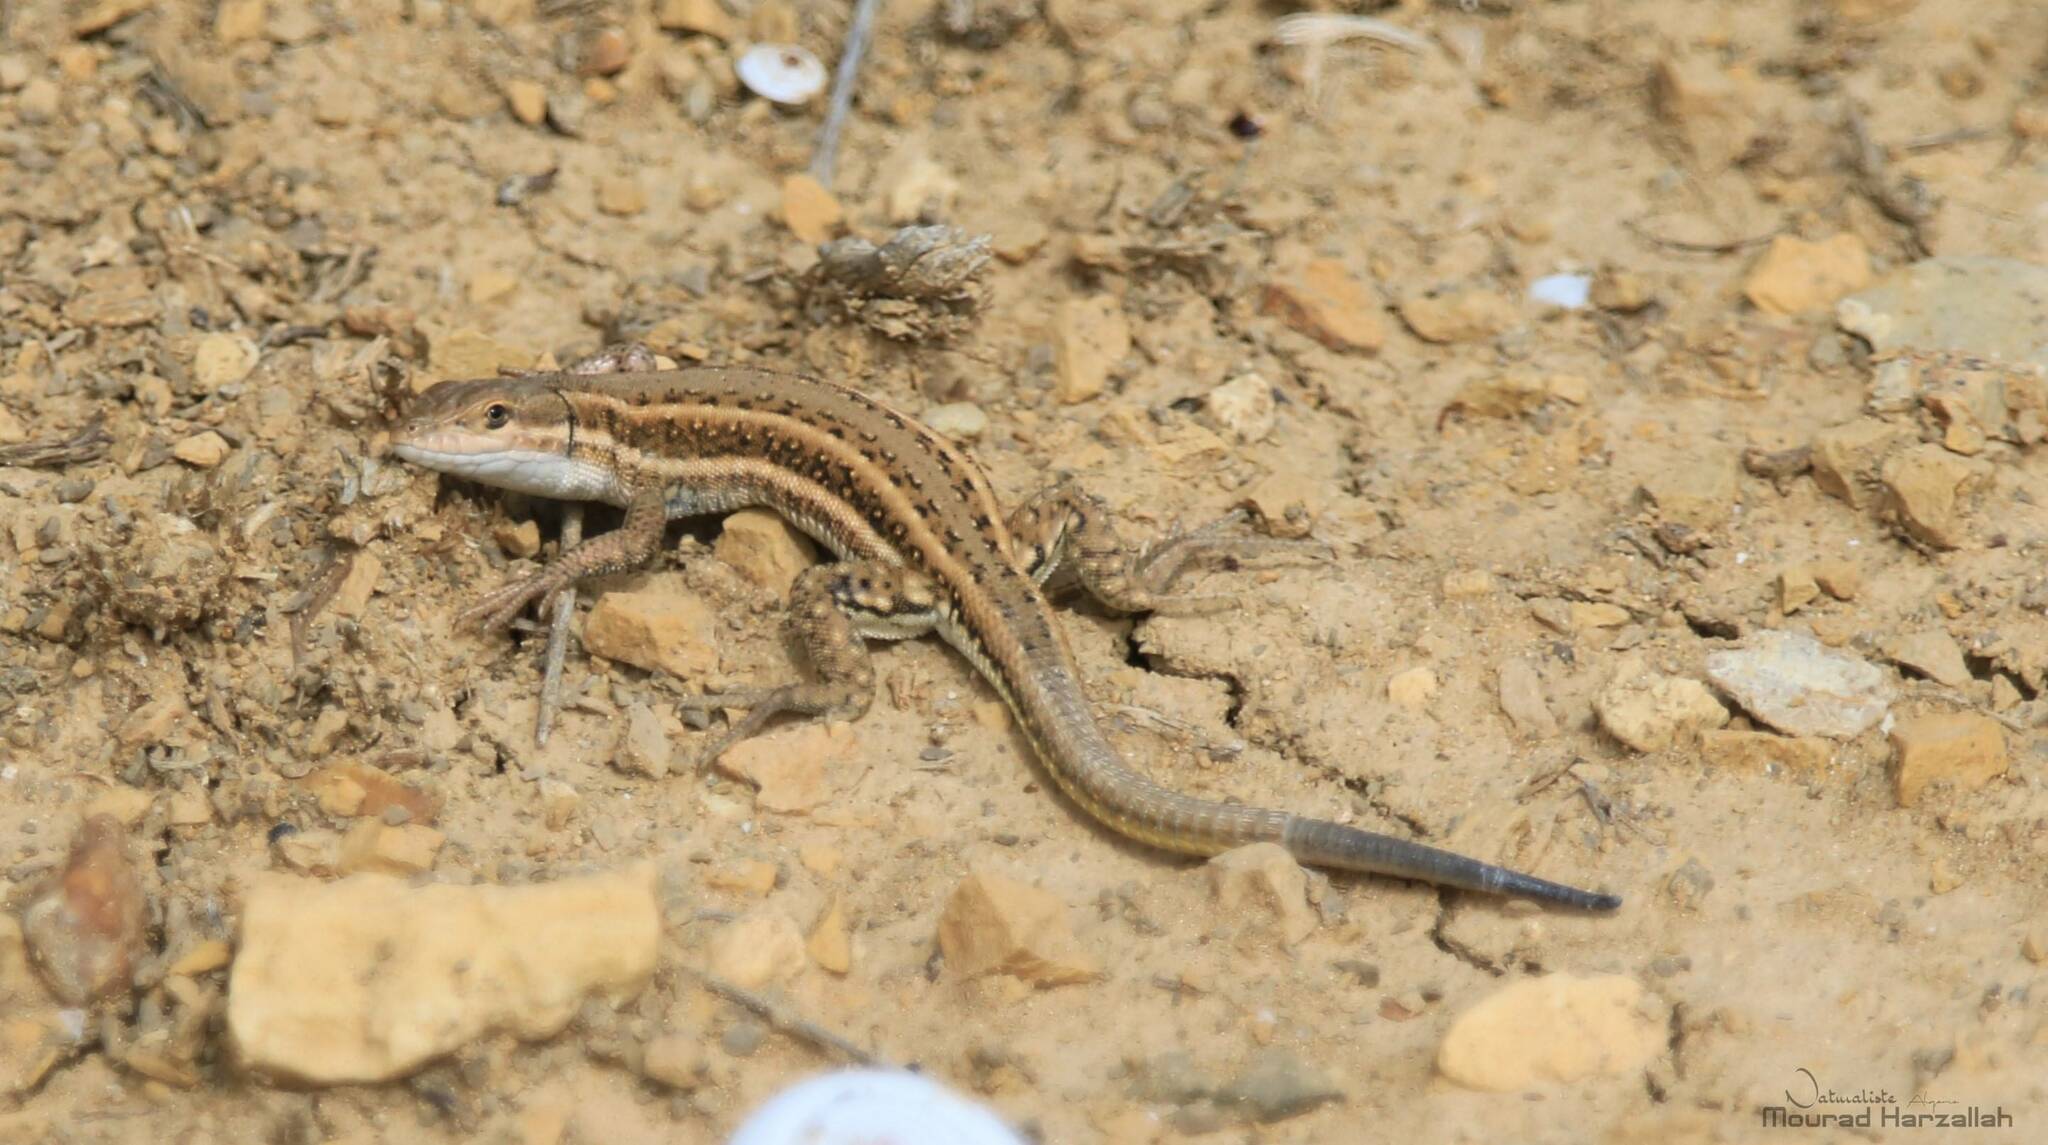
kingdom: Animalia
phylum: Chordata
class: Squamata
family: Lacertidae
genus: Mesalina
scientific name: Mesalina olivieri
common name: Oliver's desert racer
